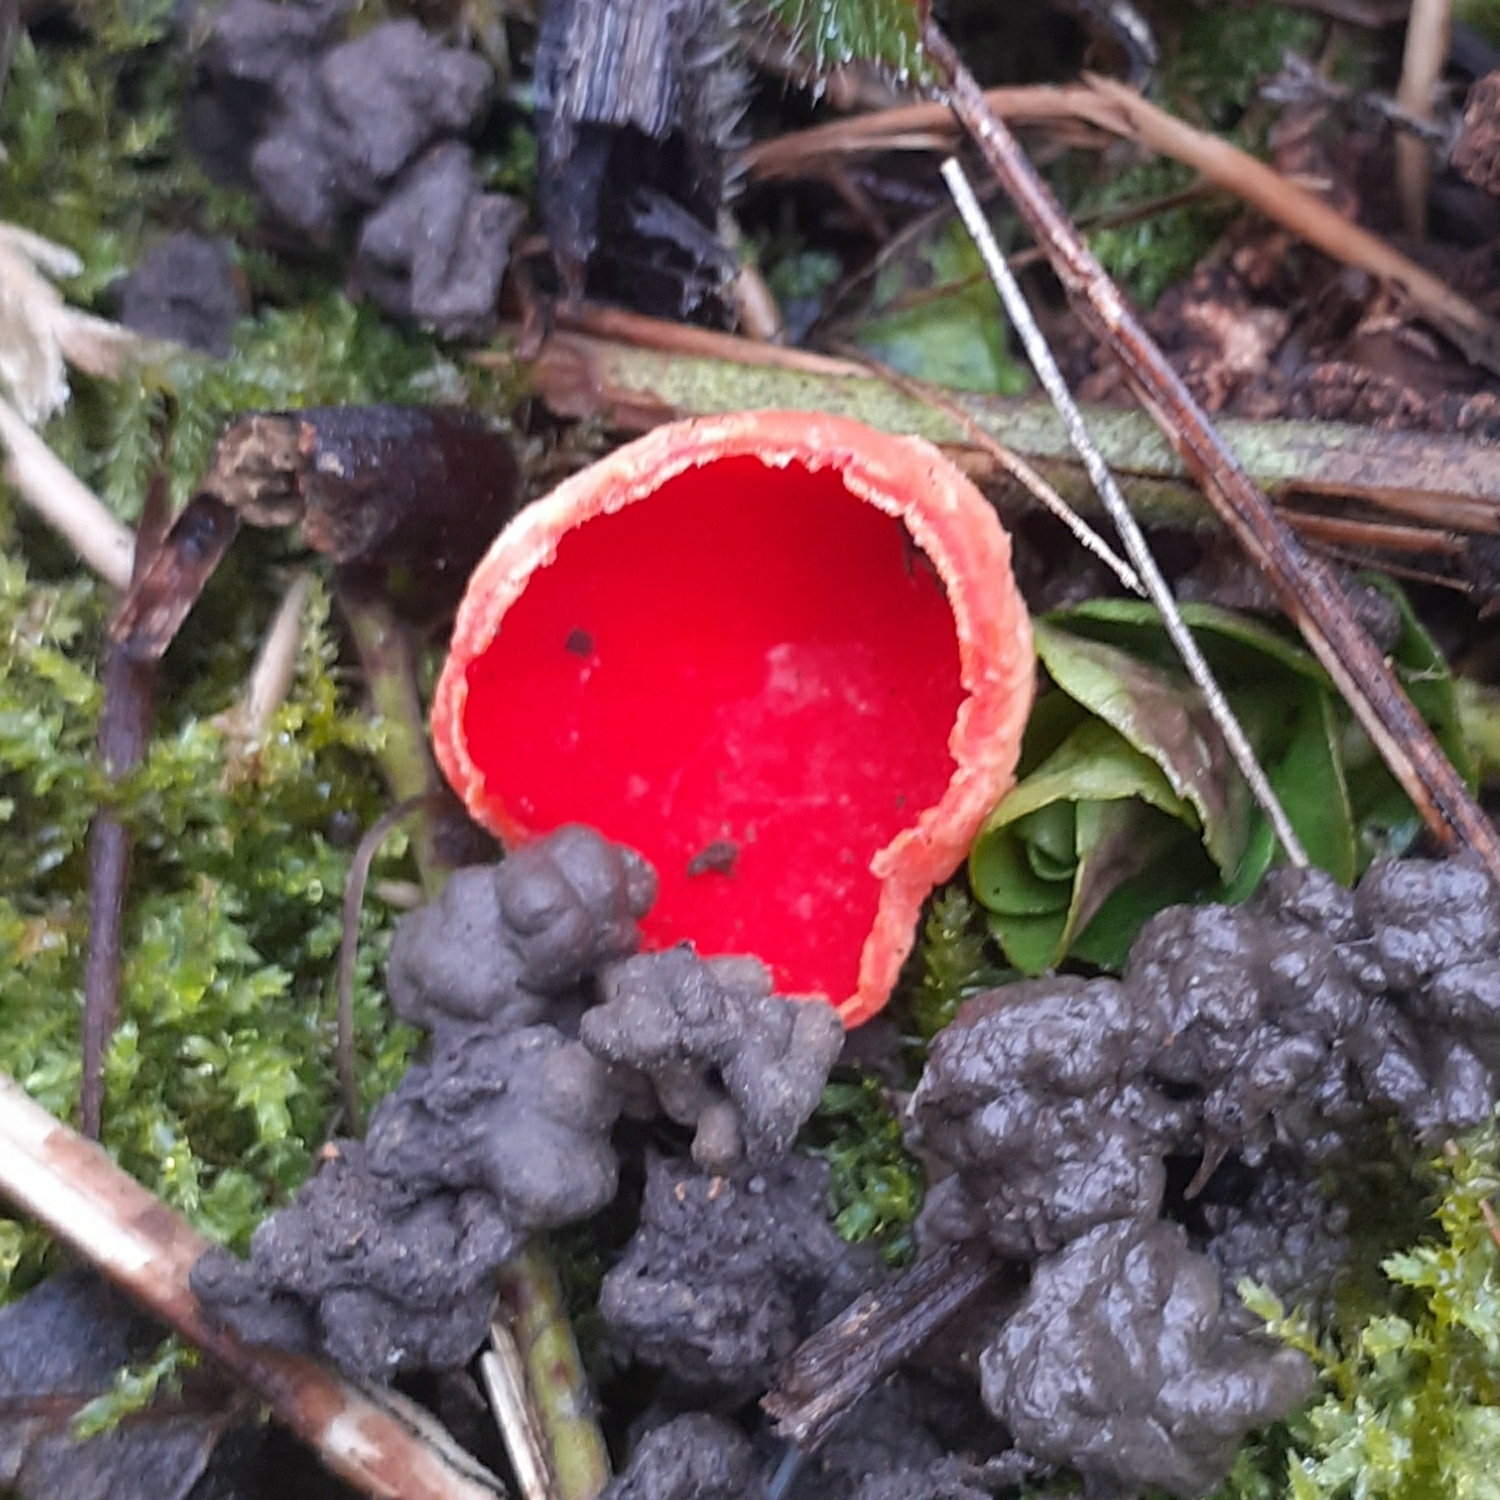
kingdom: Fungi
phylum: Ascomycota
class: Pezizomycetes
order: Pezizales
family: Sarcoscyphaceae
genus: Sarcoscypha
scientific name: Sarcoscypha
